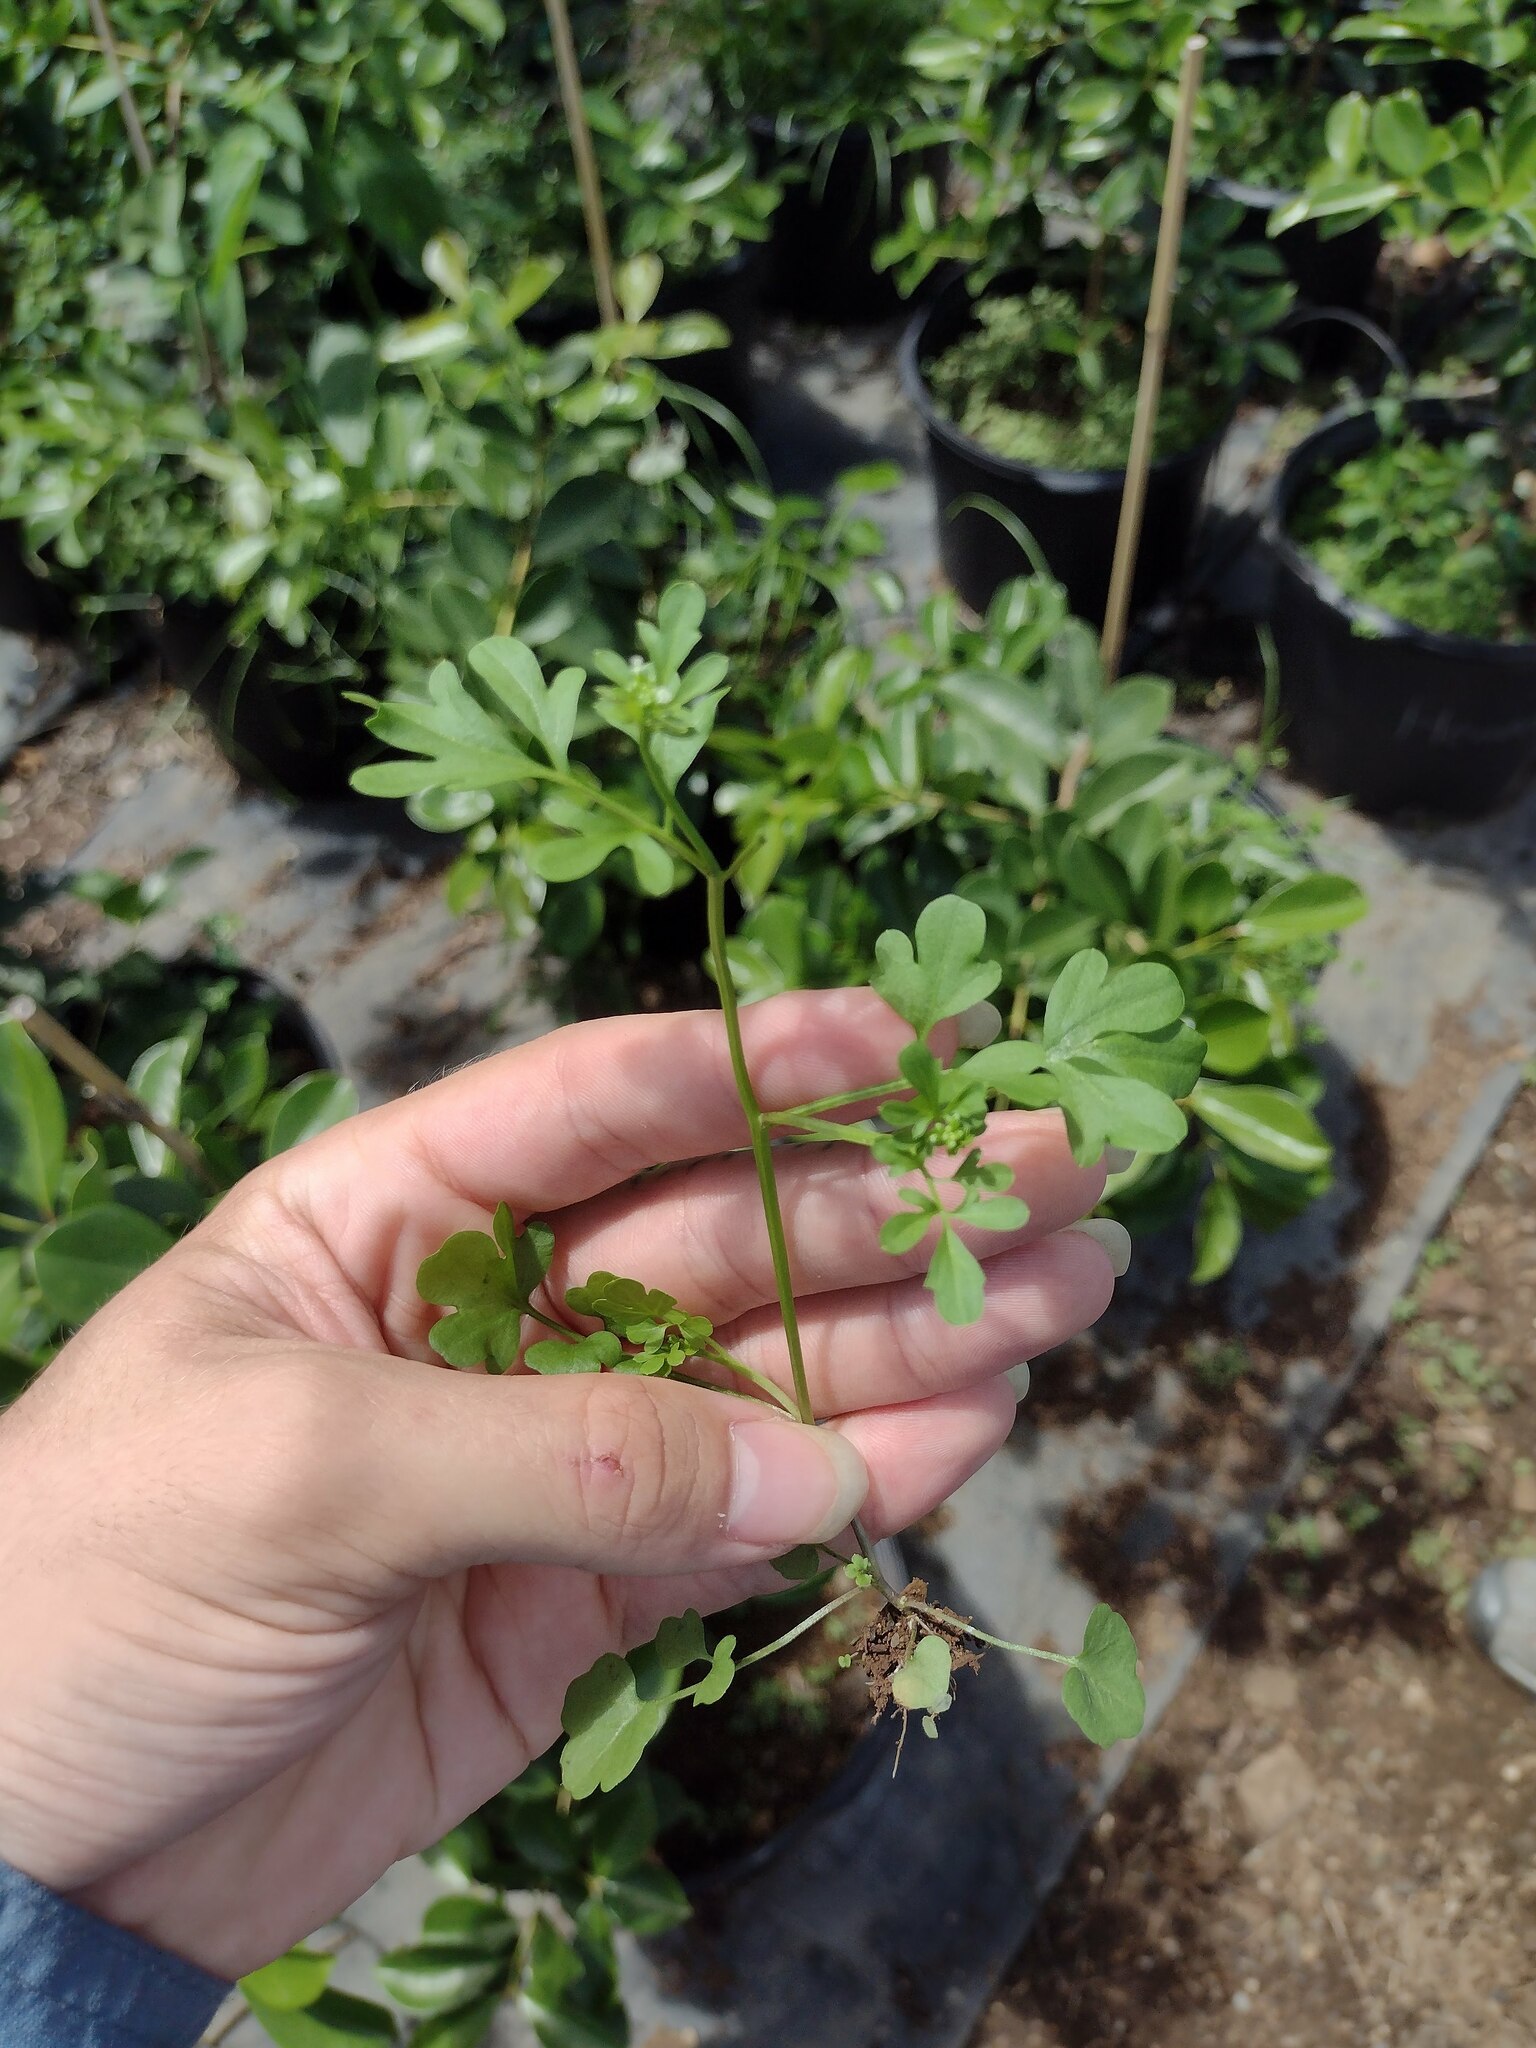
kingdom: Plantae
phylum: Tracheophyta
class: Magnoliopsida
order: Brassicales
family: Brassicaceae
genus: Cardamine
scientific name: Cardamine occulta
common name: Asian wavy bittercress
